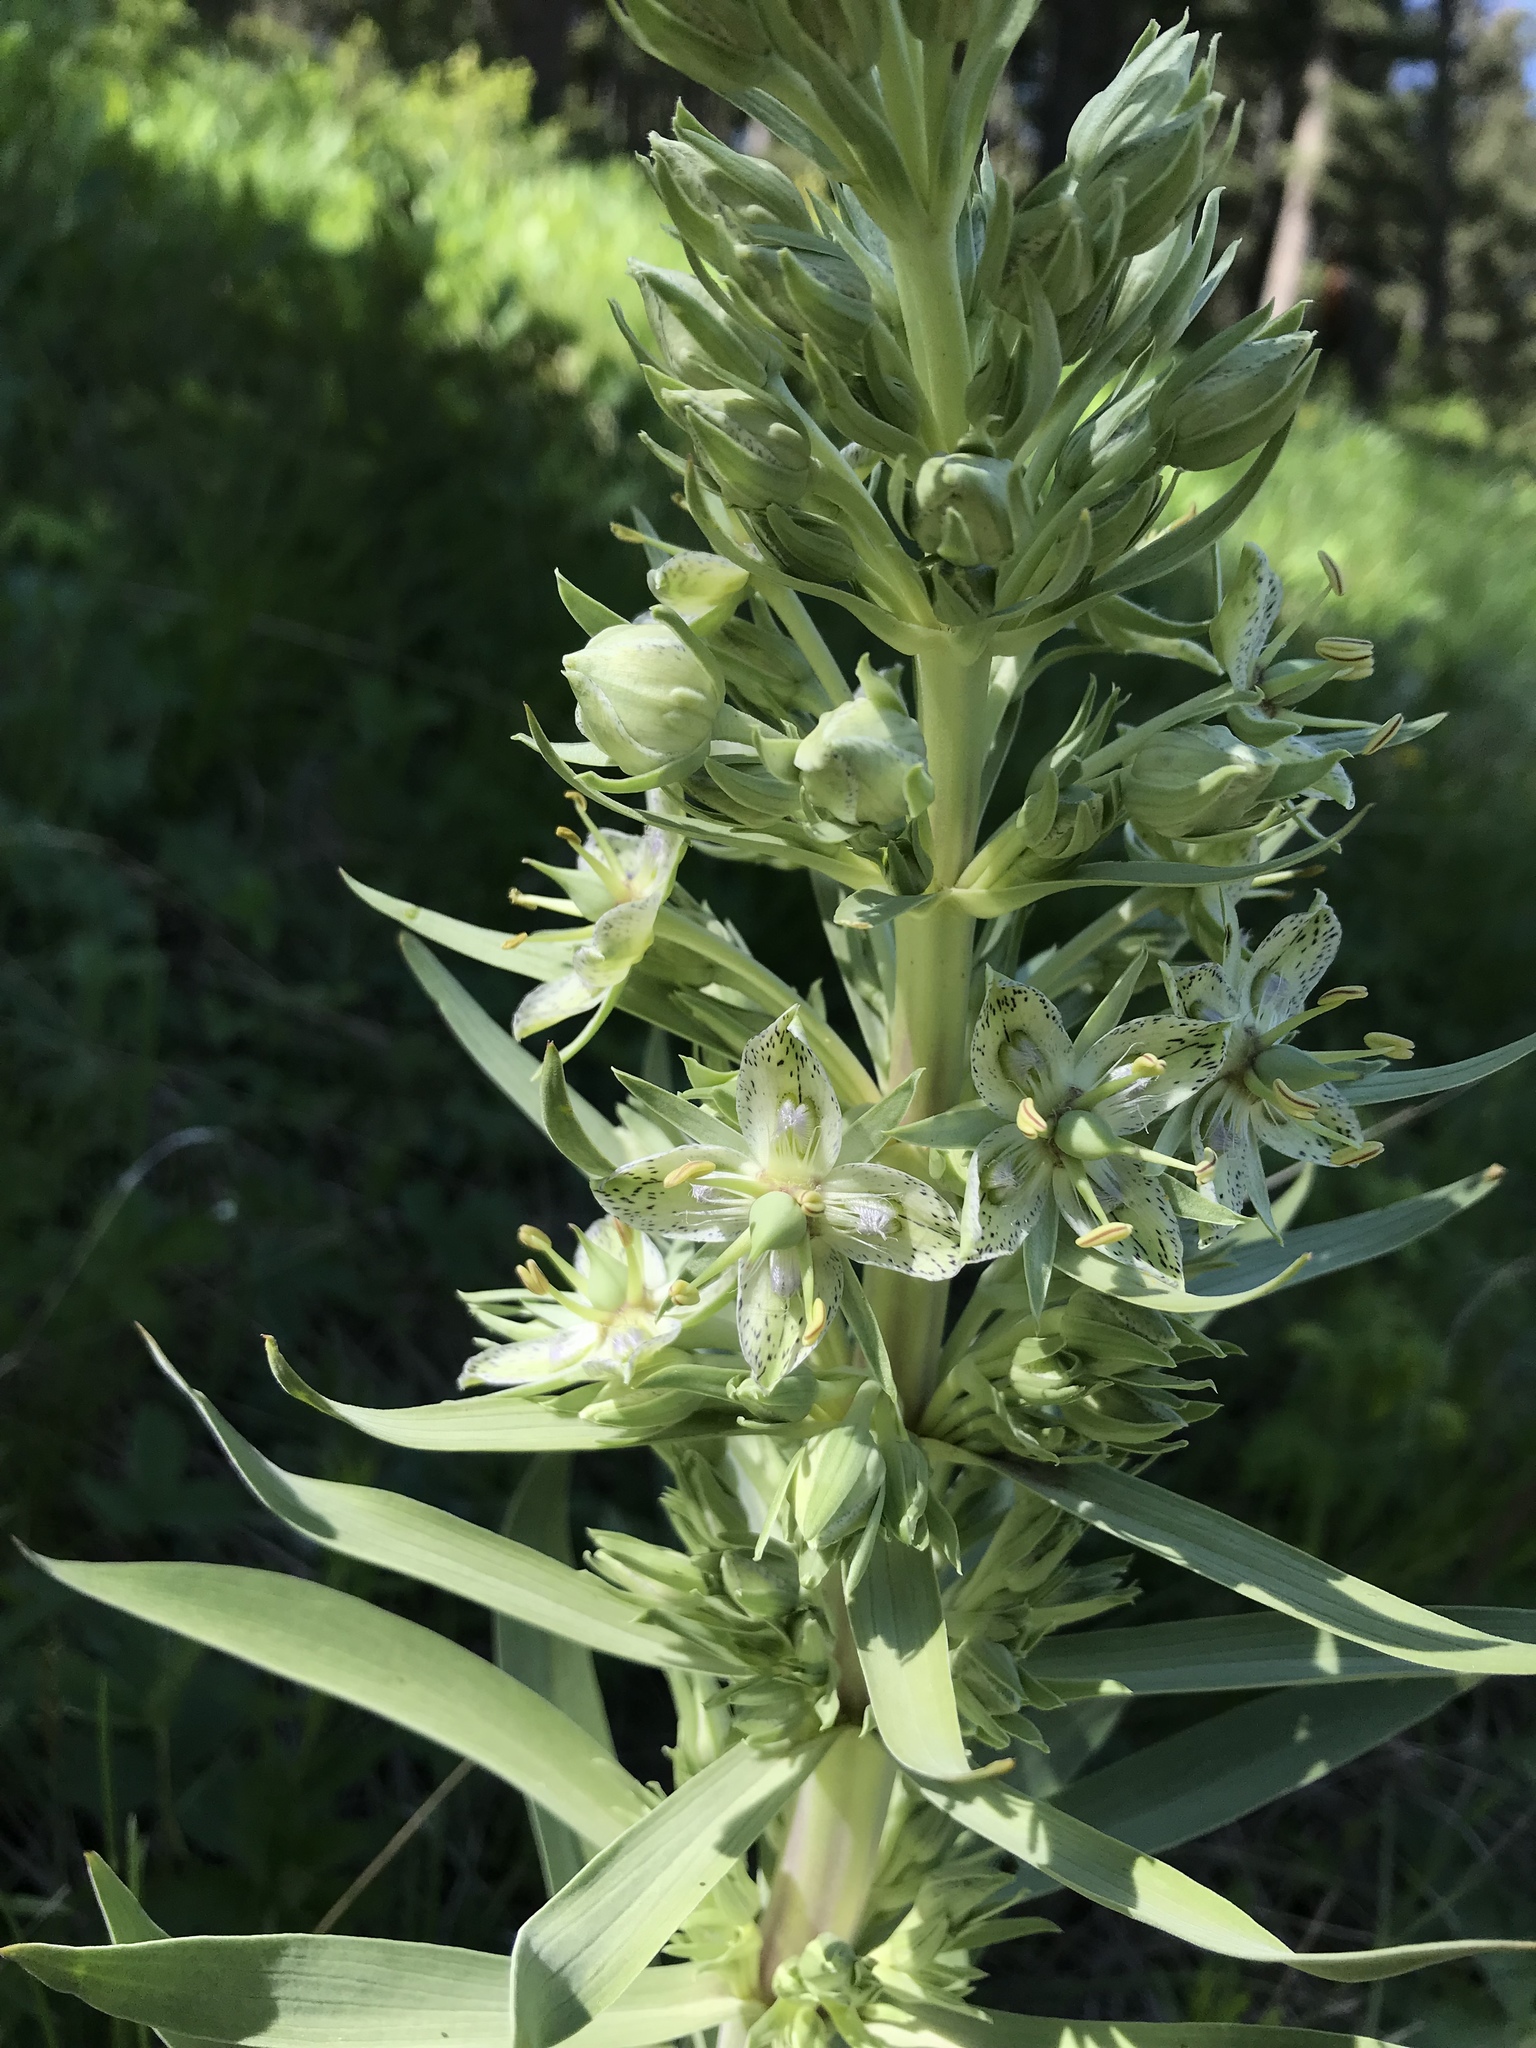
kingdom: Plantae
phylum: Tracheophyta
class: Magnoliopsida
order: Gentianales
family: Gentianaceae
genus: Frasera
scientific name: Frasera speciosa
